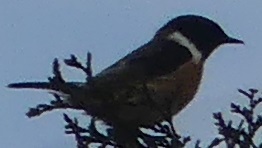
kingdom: Animalia
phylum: Chordata
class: Aves
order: Passeriformes
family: Muscicapidae
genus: Saxicola
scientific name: Saxicola rubicola
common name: European stonechat
